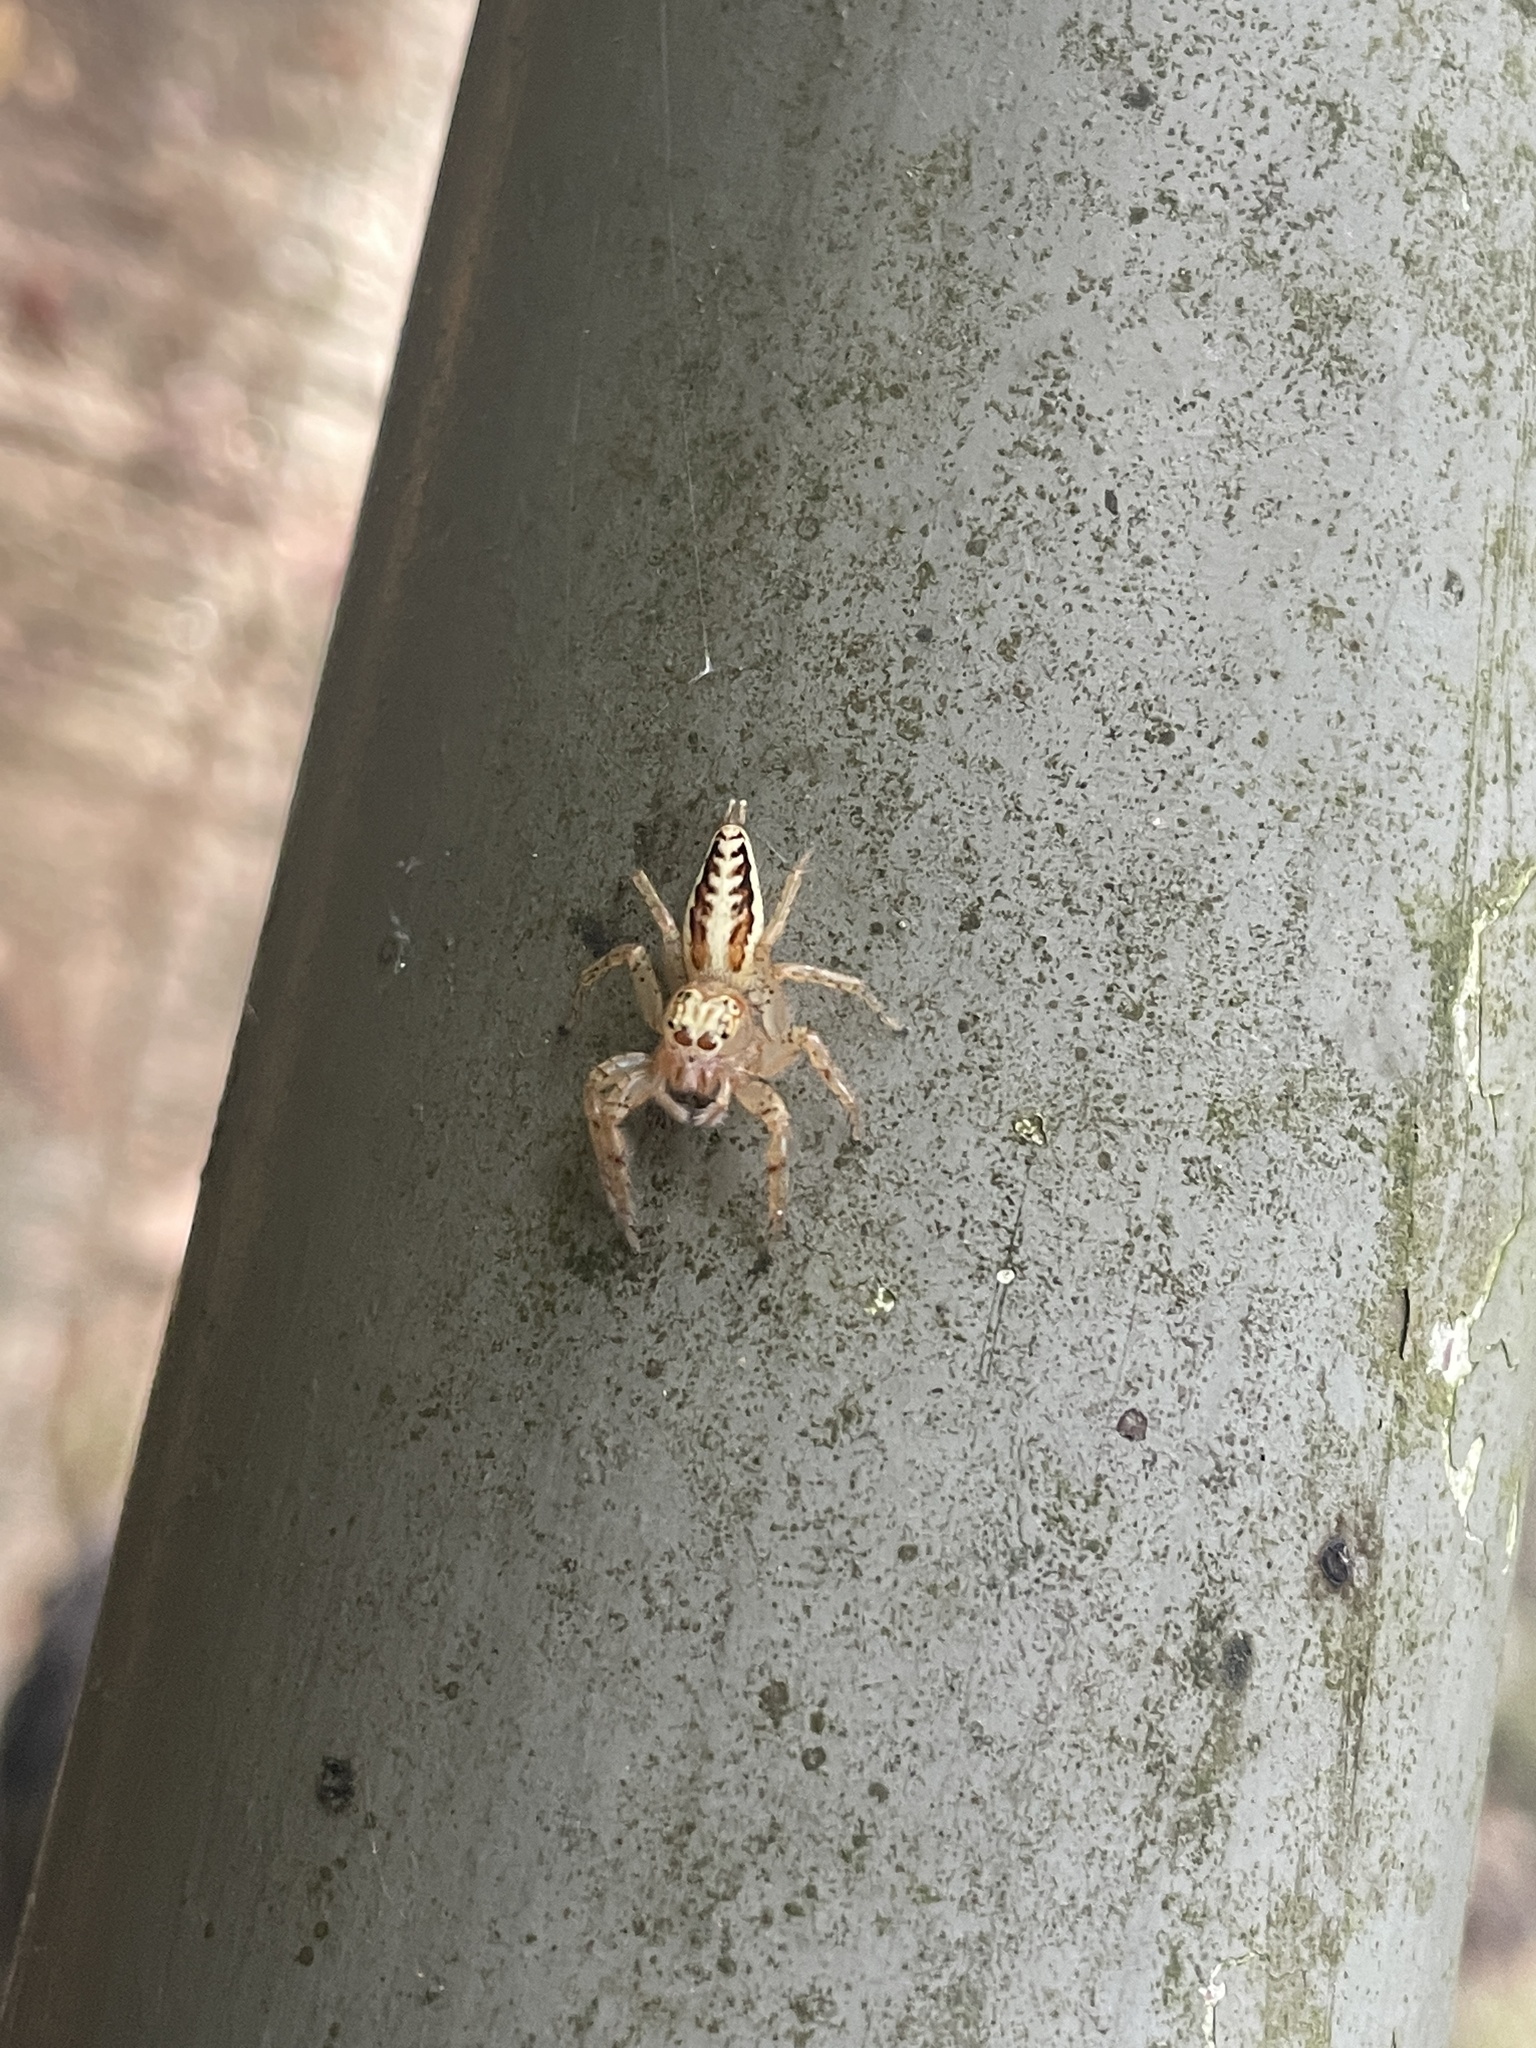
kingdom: Animalia
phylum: Arthropoda
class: Arachnida
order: Araneae
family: Salticidae
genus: Telamonia
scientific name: Telamonia caprina
